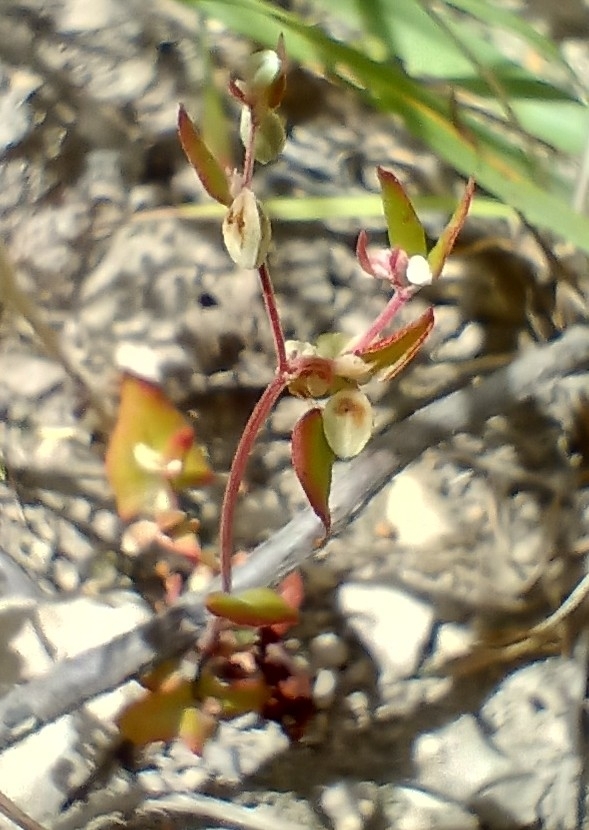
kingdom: Plantae
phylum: Tracheophyta
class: Magnoliopsida
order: Caryophyllales
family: Polygonaceae
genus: Fallopia
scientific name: Fallopia convolvulus
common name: Black bindweed
